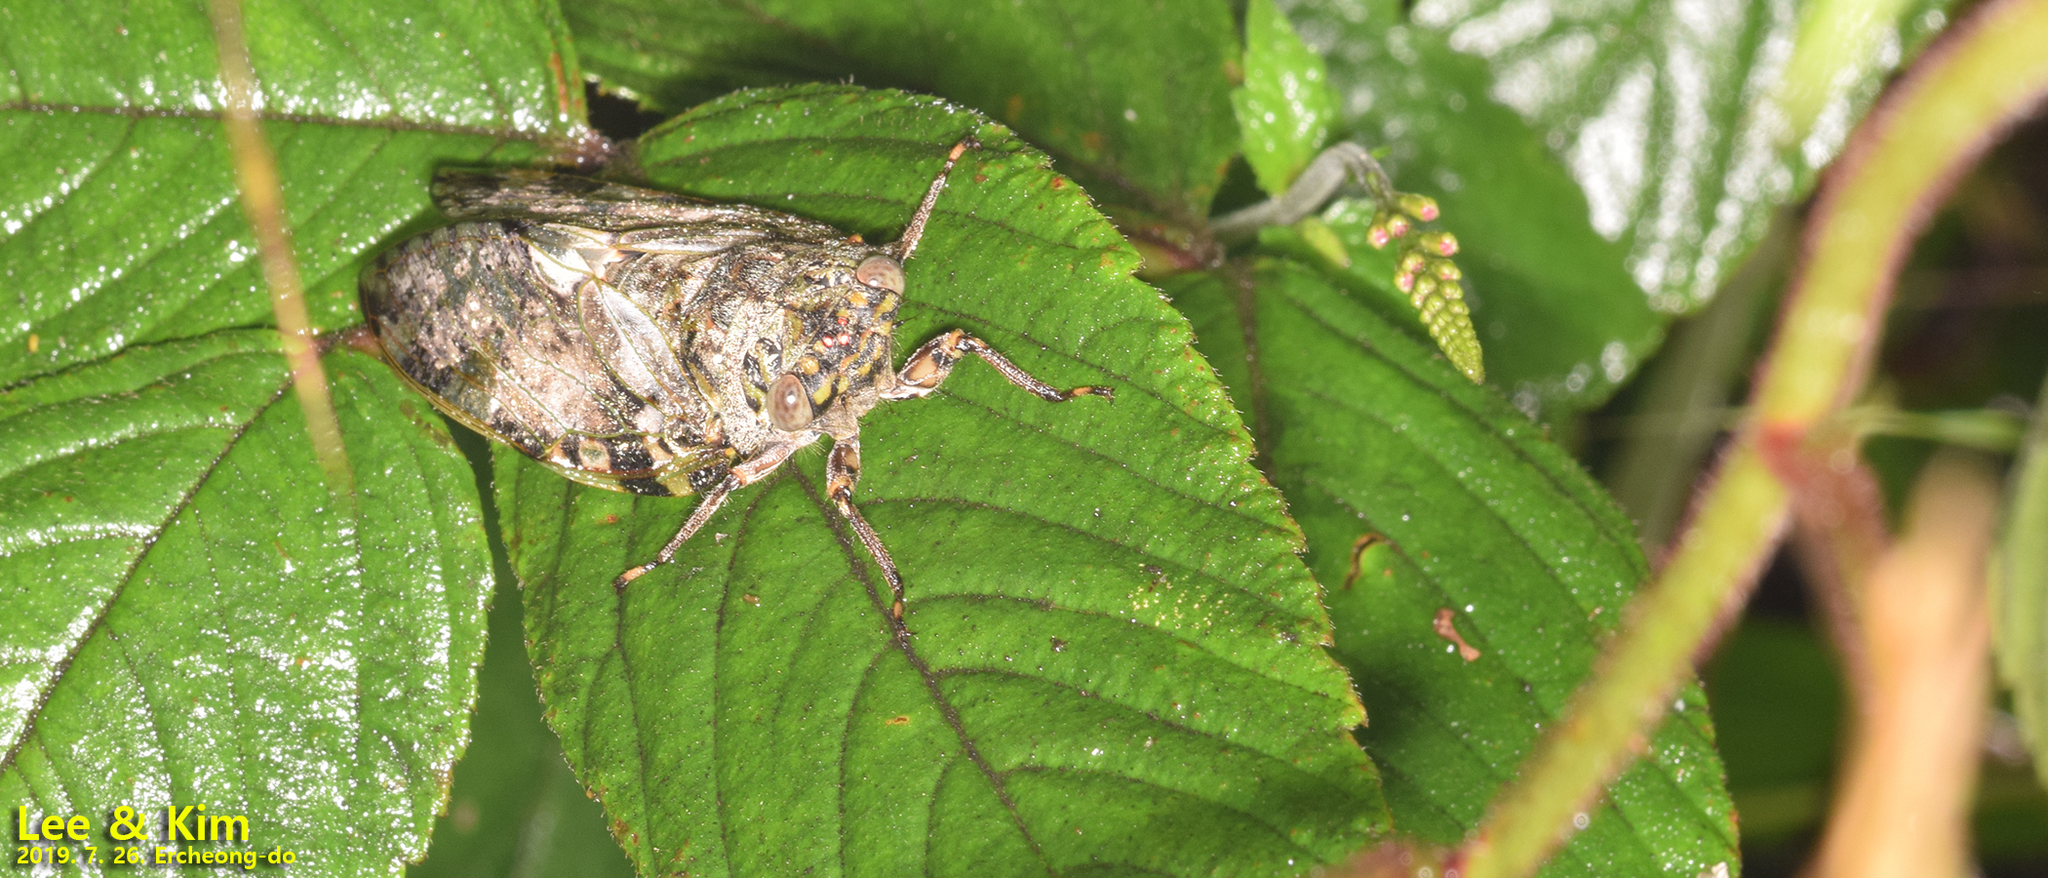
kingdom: Animalia
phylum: Arthropoda
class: Insecta
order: Hemiptera
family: Cicadidae
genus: Platypleura
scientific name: Platypleura kaempferi
